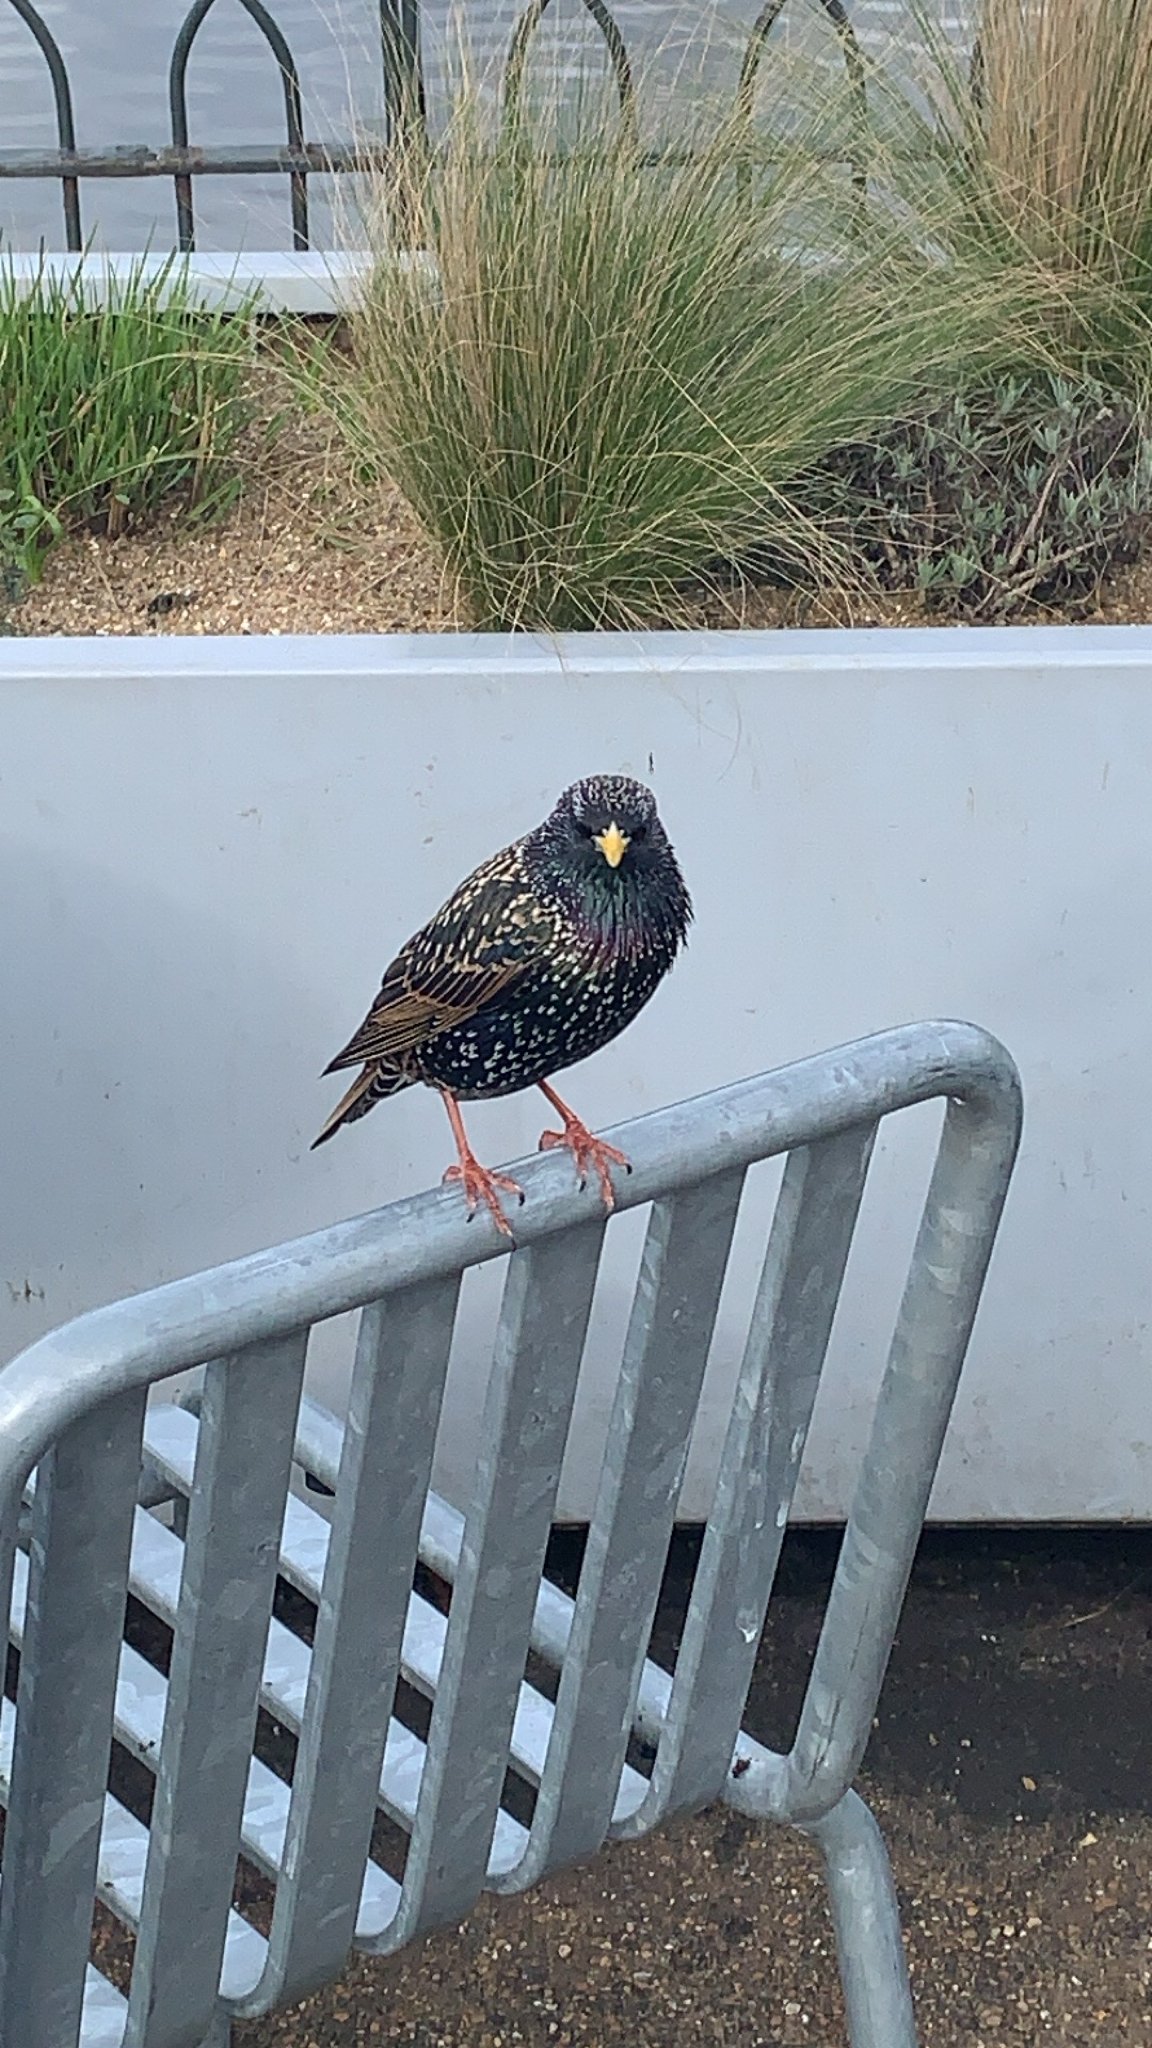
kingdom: Animalia
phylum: Chordata
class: Aves
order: Passeriformes
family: Sturnidae
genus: Sturnus
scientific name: Sturnus vulgaris
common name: Common starling
